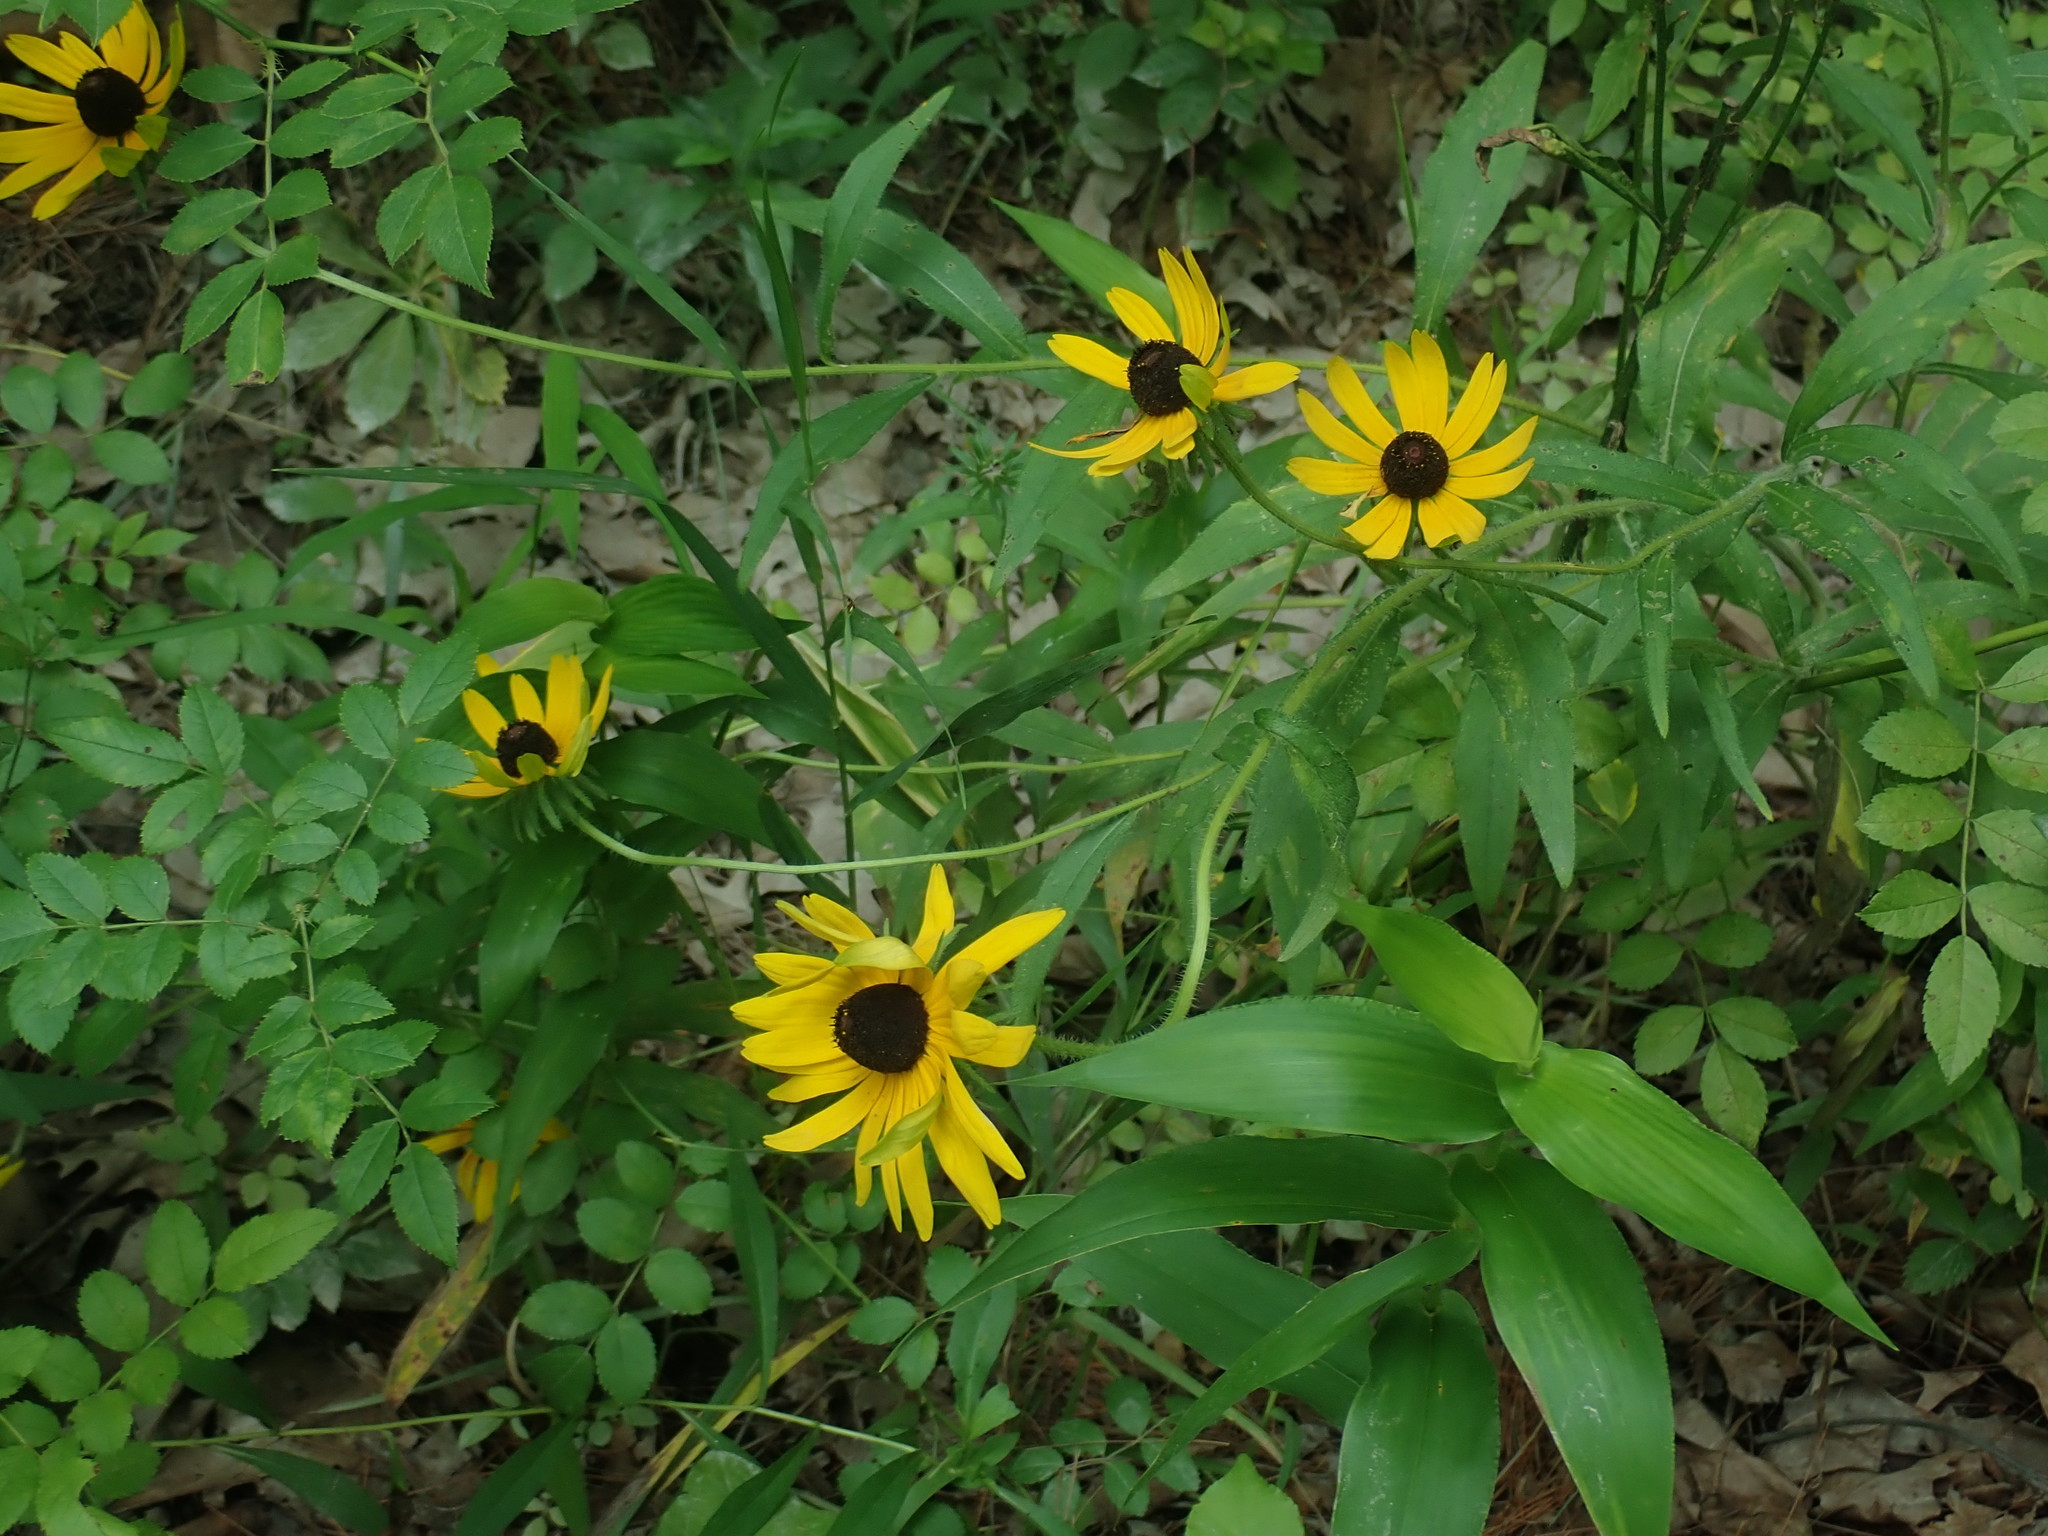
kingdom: Plantae
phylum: Tracheophyta
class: Magnoliopsida
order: Asterales
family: Asteraceae
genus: Rudbeckia
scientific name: Rudbeckia hirta
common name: Black-eyed-susan
